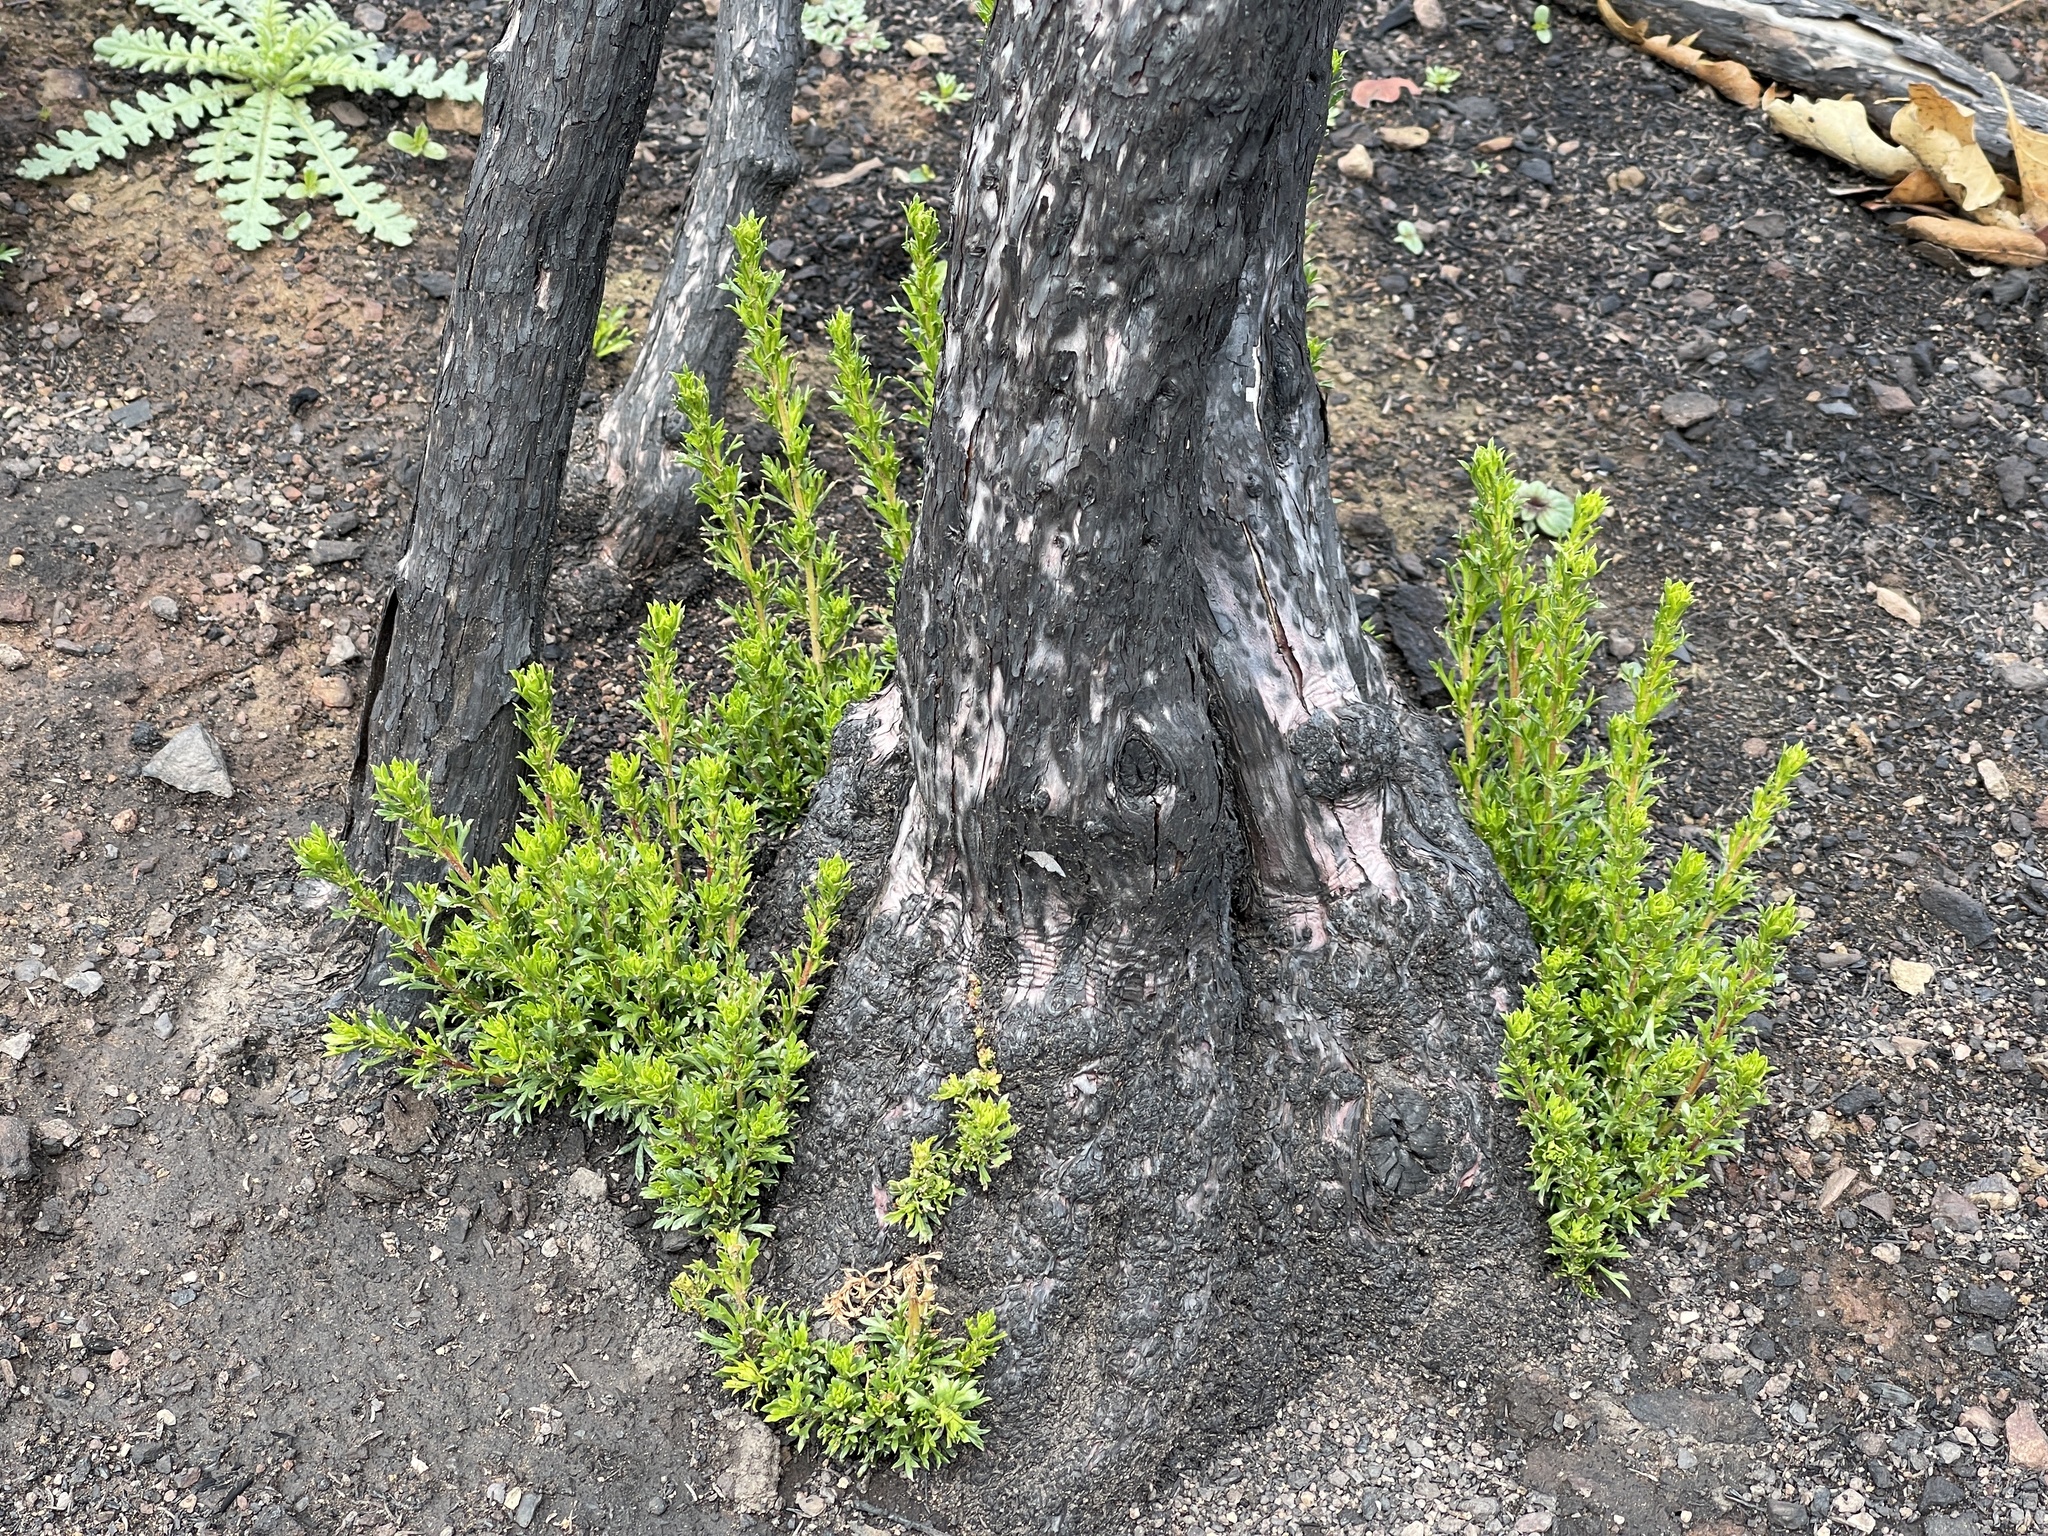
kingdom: Plantae
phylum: Tracheophyta
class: Magnoliopsida
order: Rosales
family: Rosaceae
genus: Adenostoma
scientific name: Adenostoma fasciculatum
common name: Chamise
